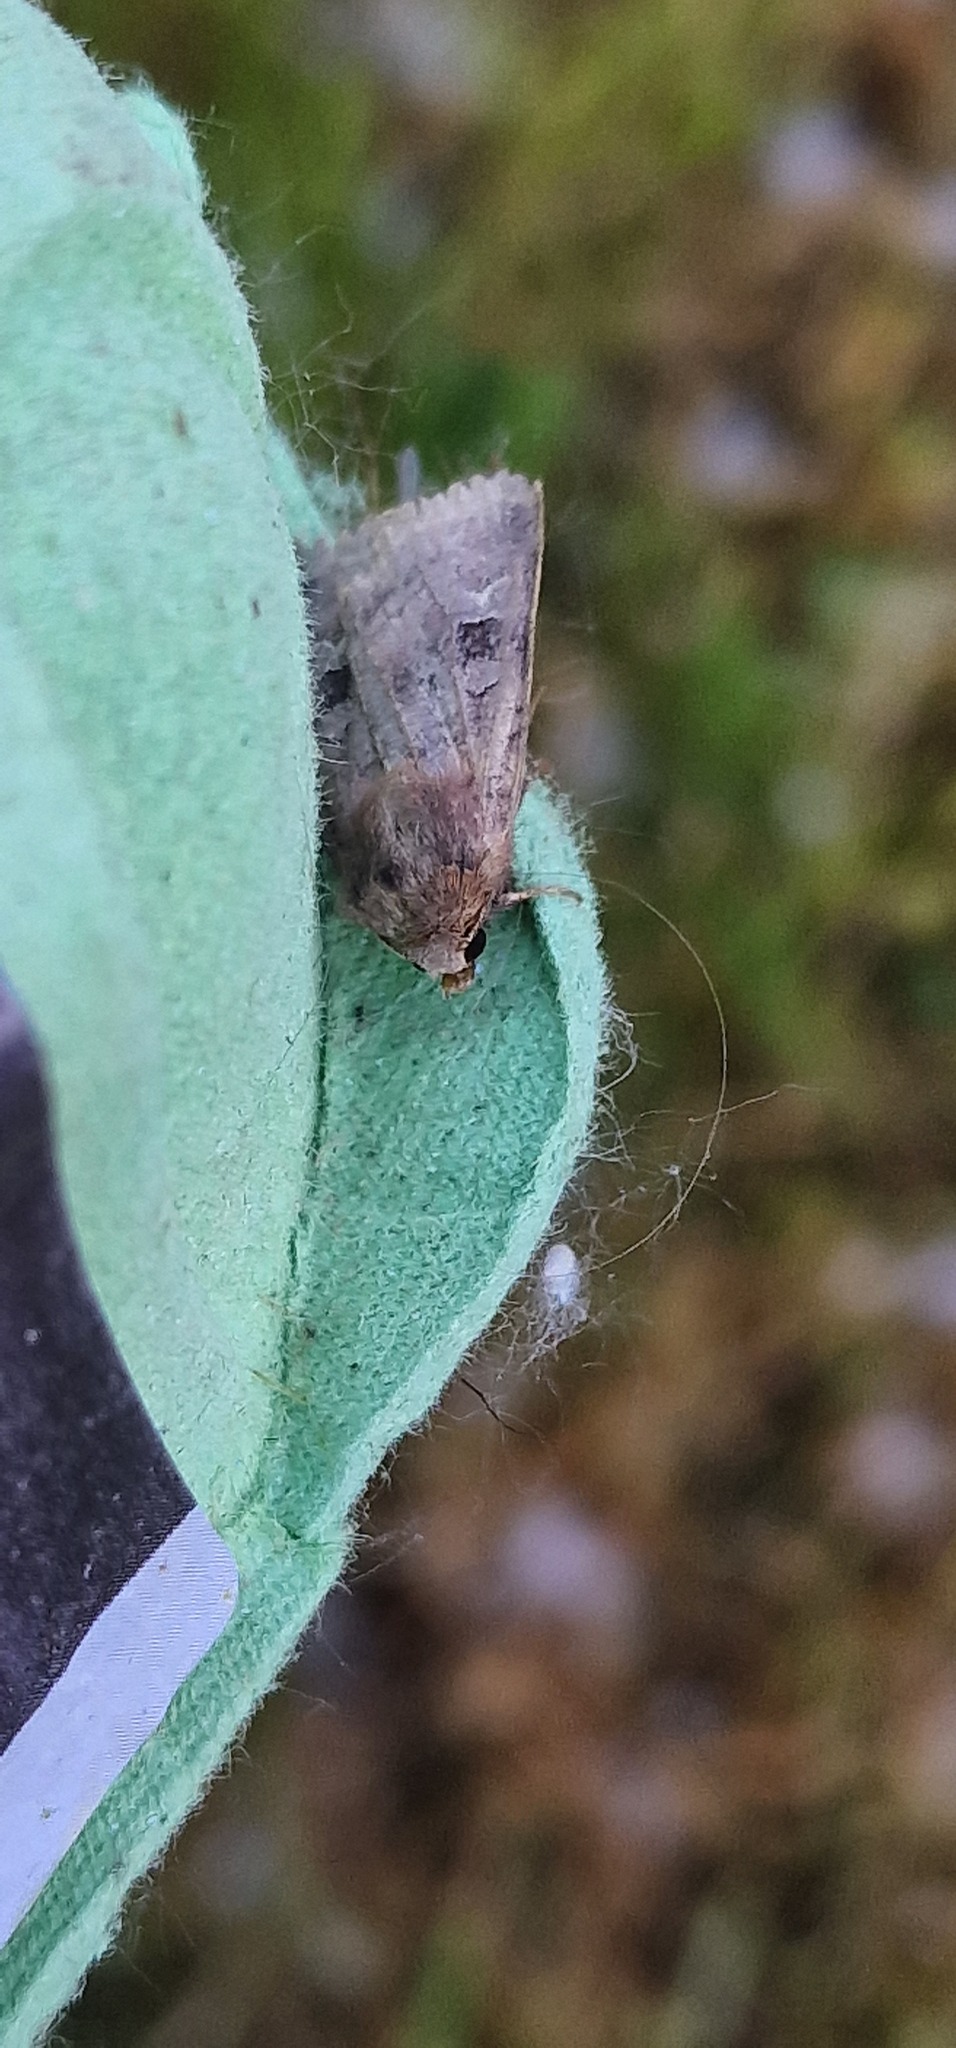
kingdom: Animalia
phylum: Arthropoda
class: Insecta
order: Lepidoptera
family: Noctuidae
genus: Diarsia
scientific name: Diarsia rubi
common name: Small square-spot
